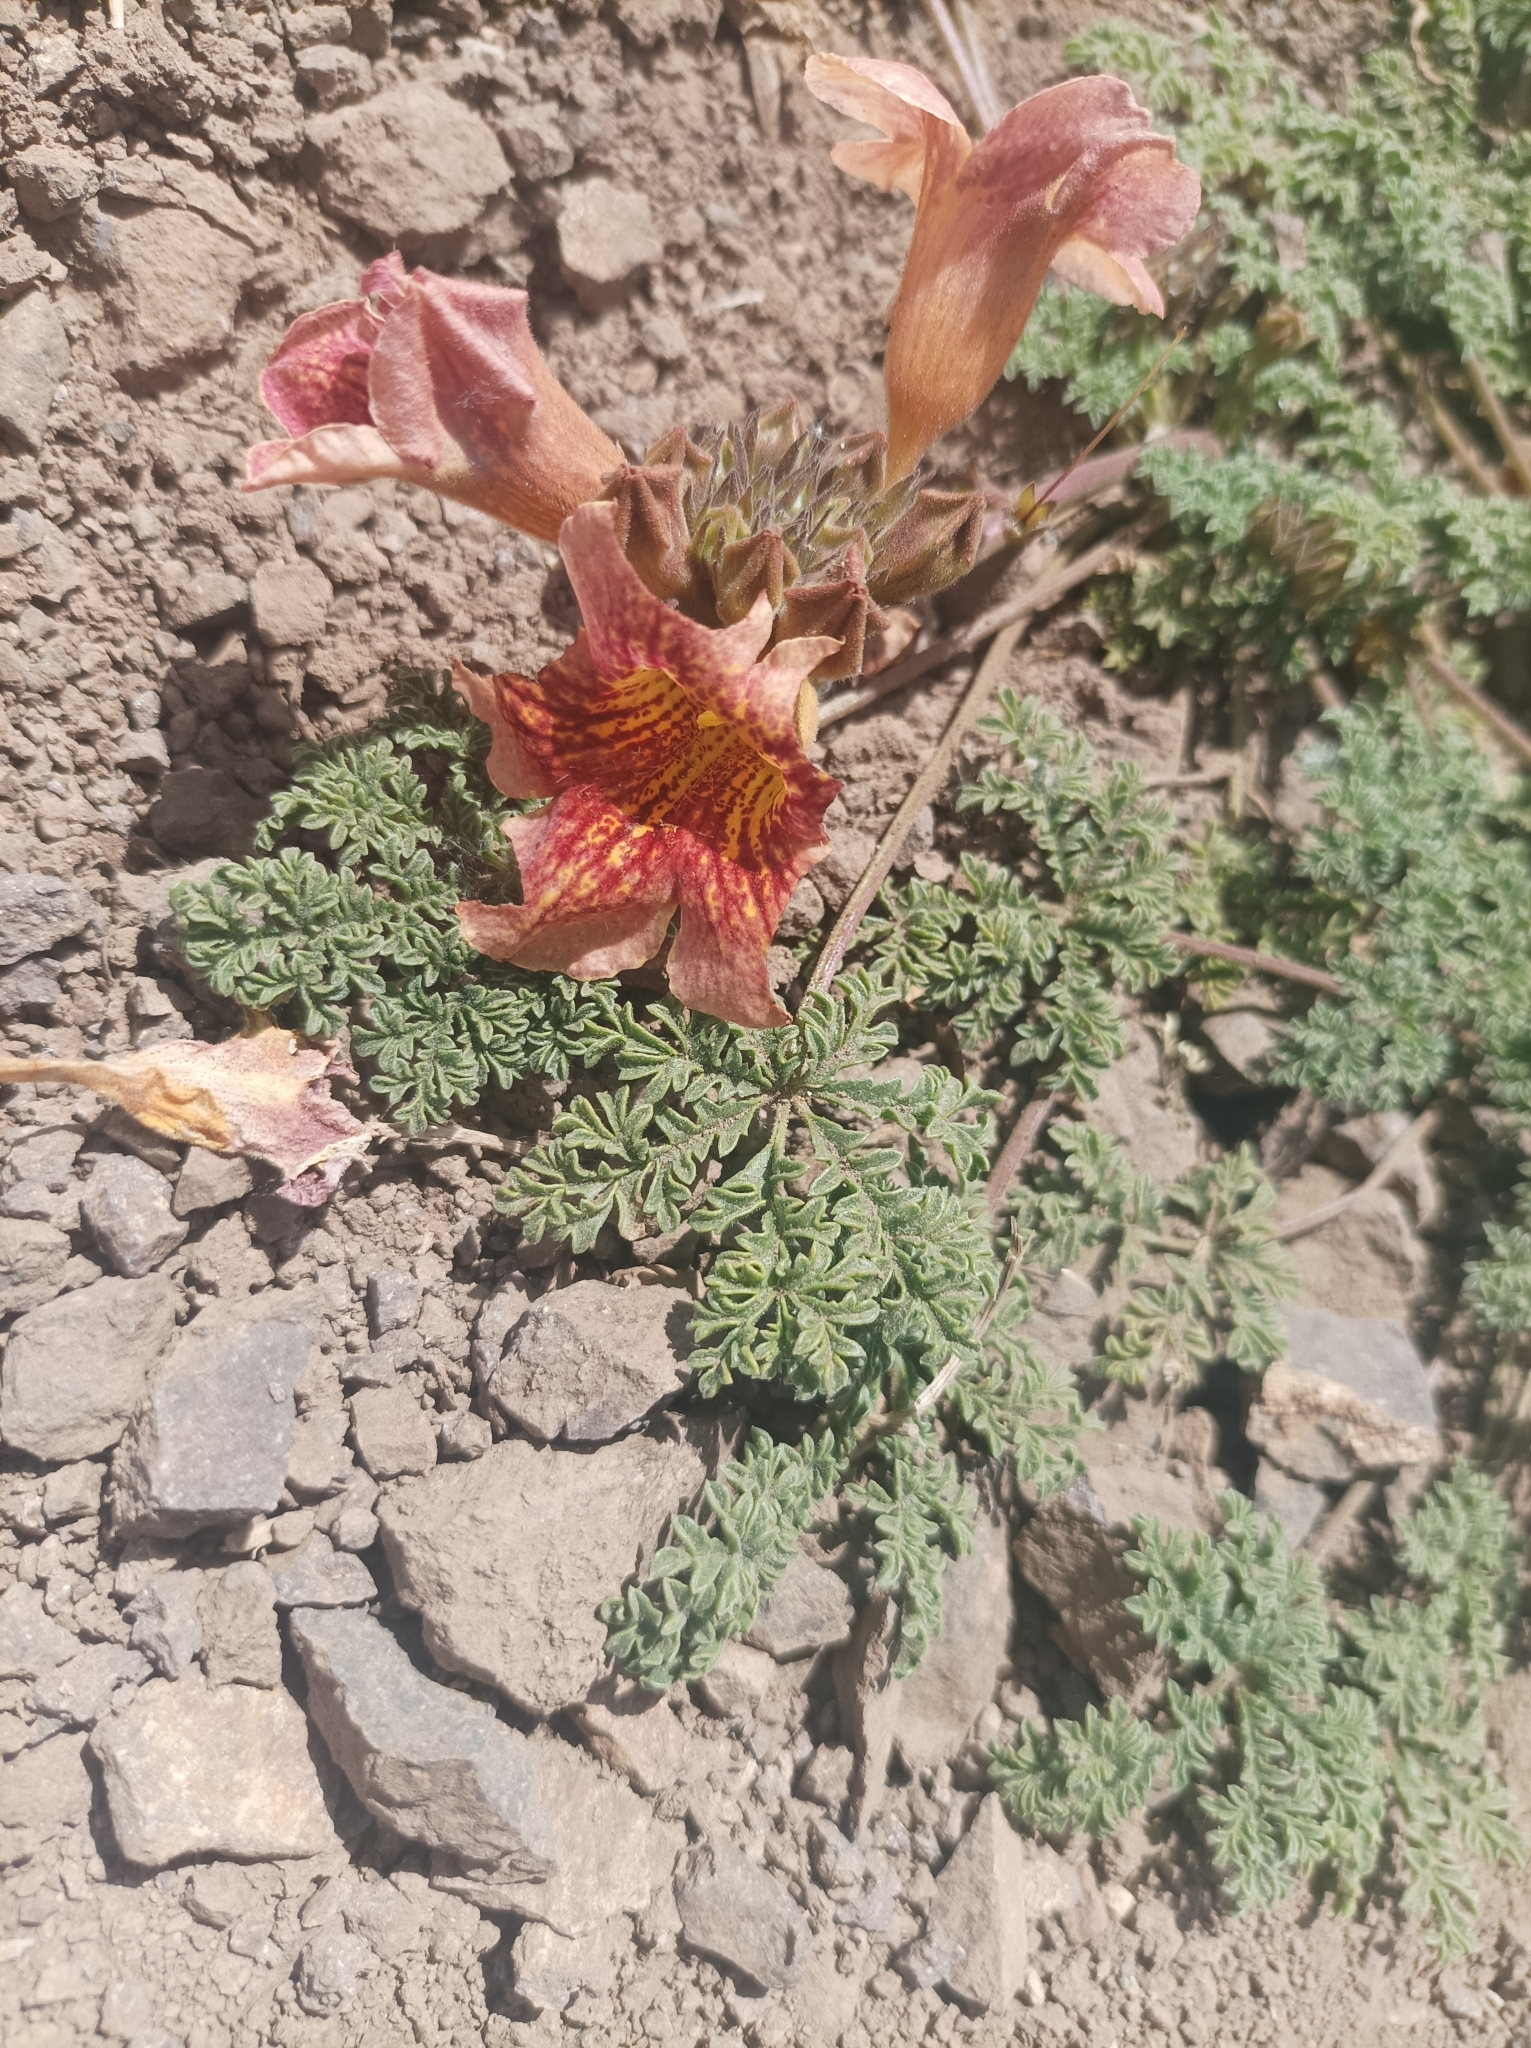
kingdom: Plantae
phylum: Tracheophyta
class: Magnoliopsida
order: Lamiales
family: Bignoniaceae
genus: Argylia
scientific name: Argylia adscendens
